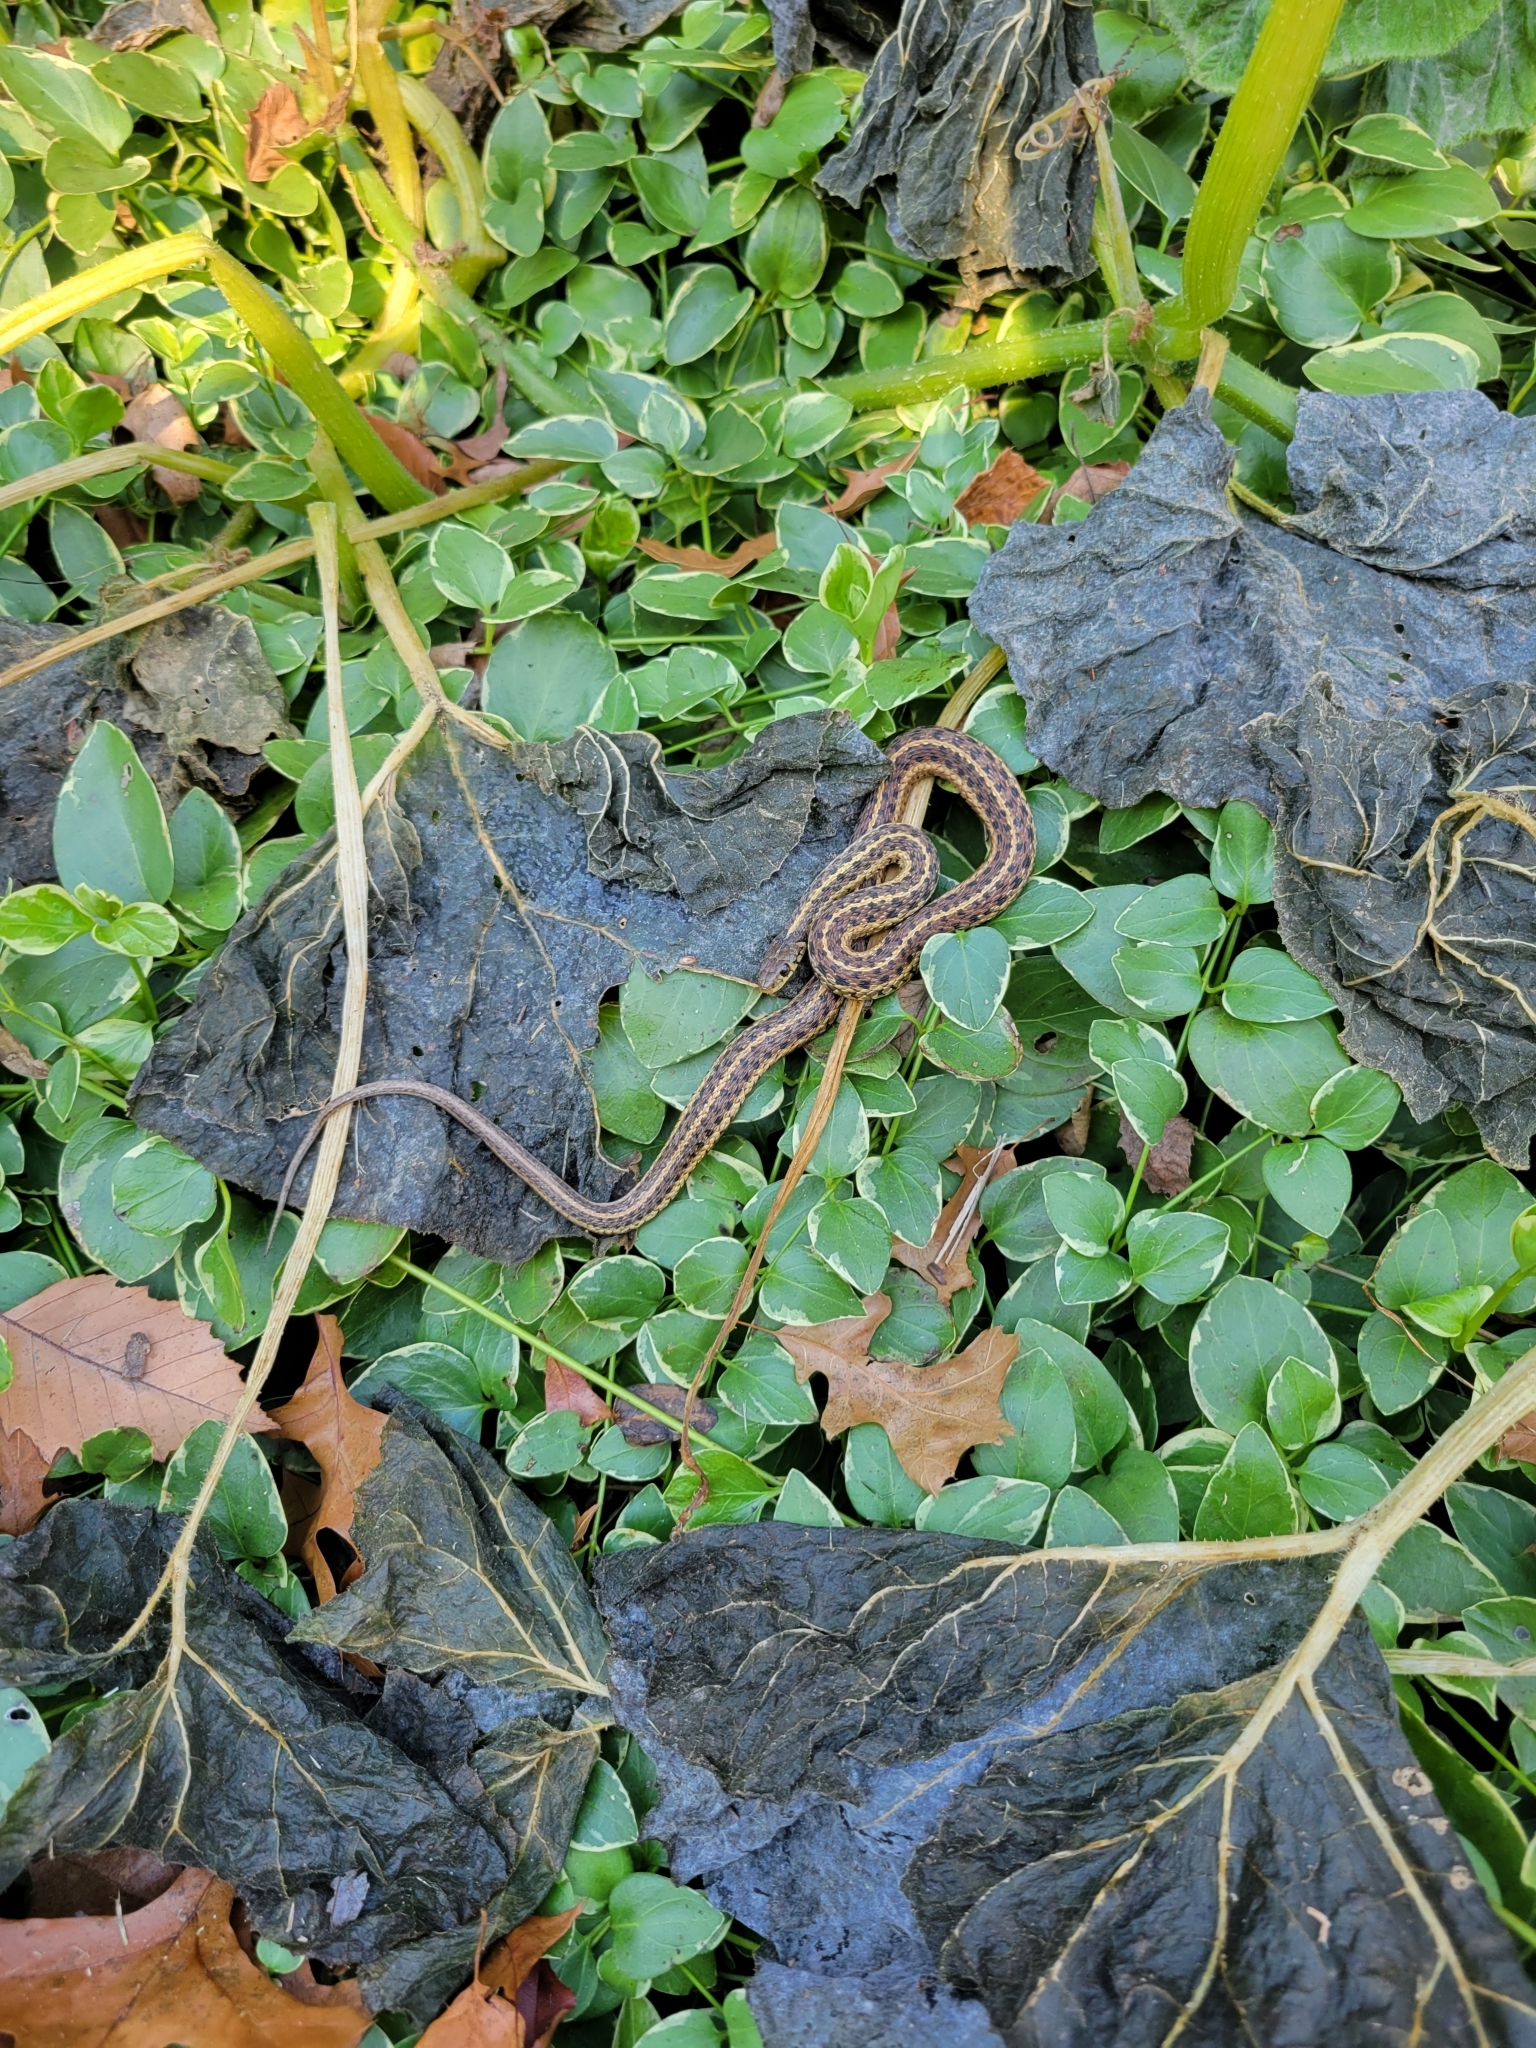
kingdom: Animalia
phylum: Chordata
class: Squamata
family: Colubridae
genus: Thamnophis
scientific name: Thamnophis sirtalis
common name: Common garter snake
